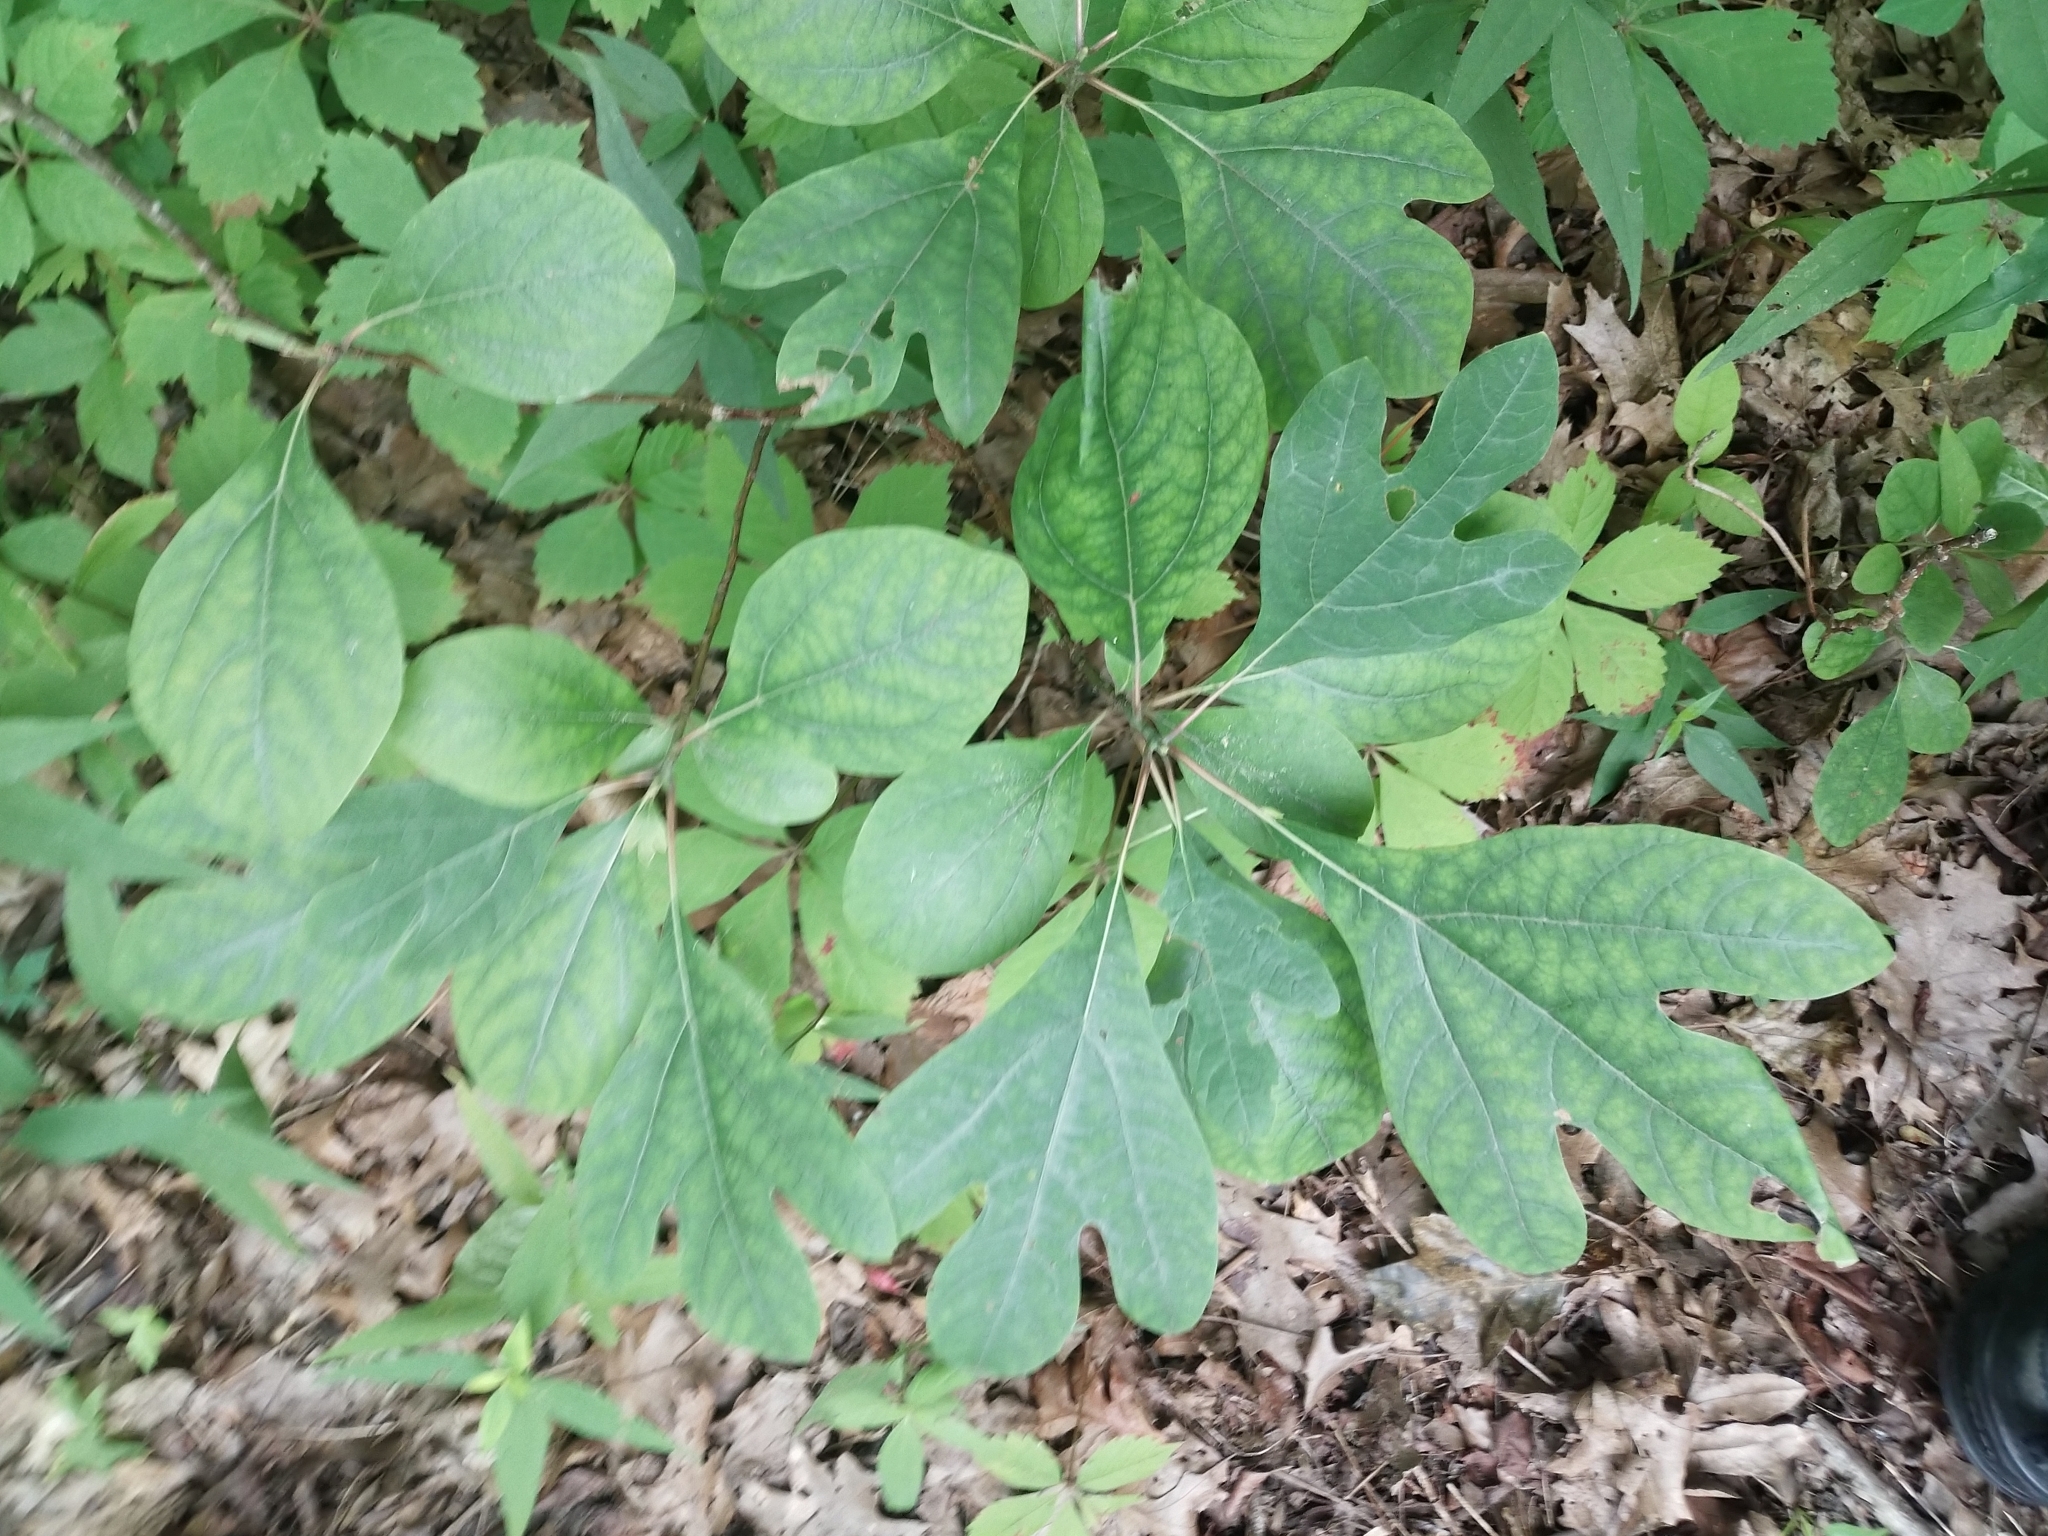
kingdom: Plantae
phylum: Tracheophyta
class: Magnoliopsida
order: Laurales
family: Lauraceae
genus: Sassafras
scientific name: Sassafras albidum
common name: Sassafras
